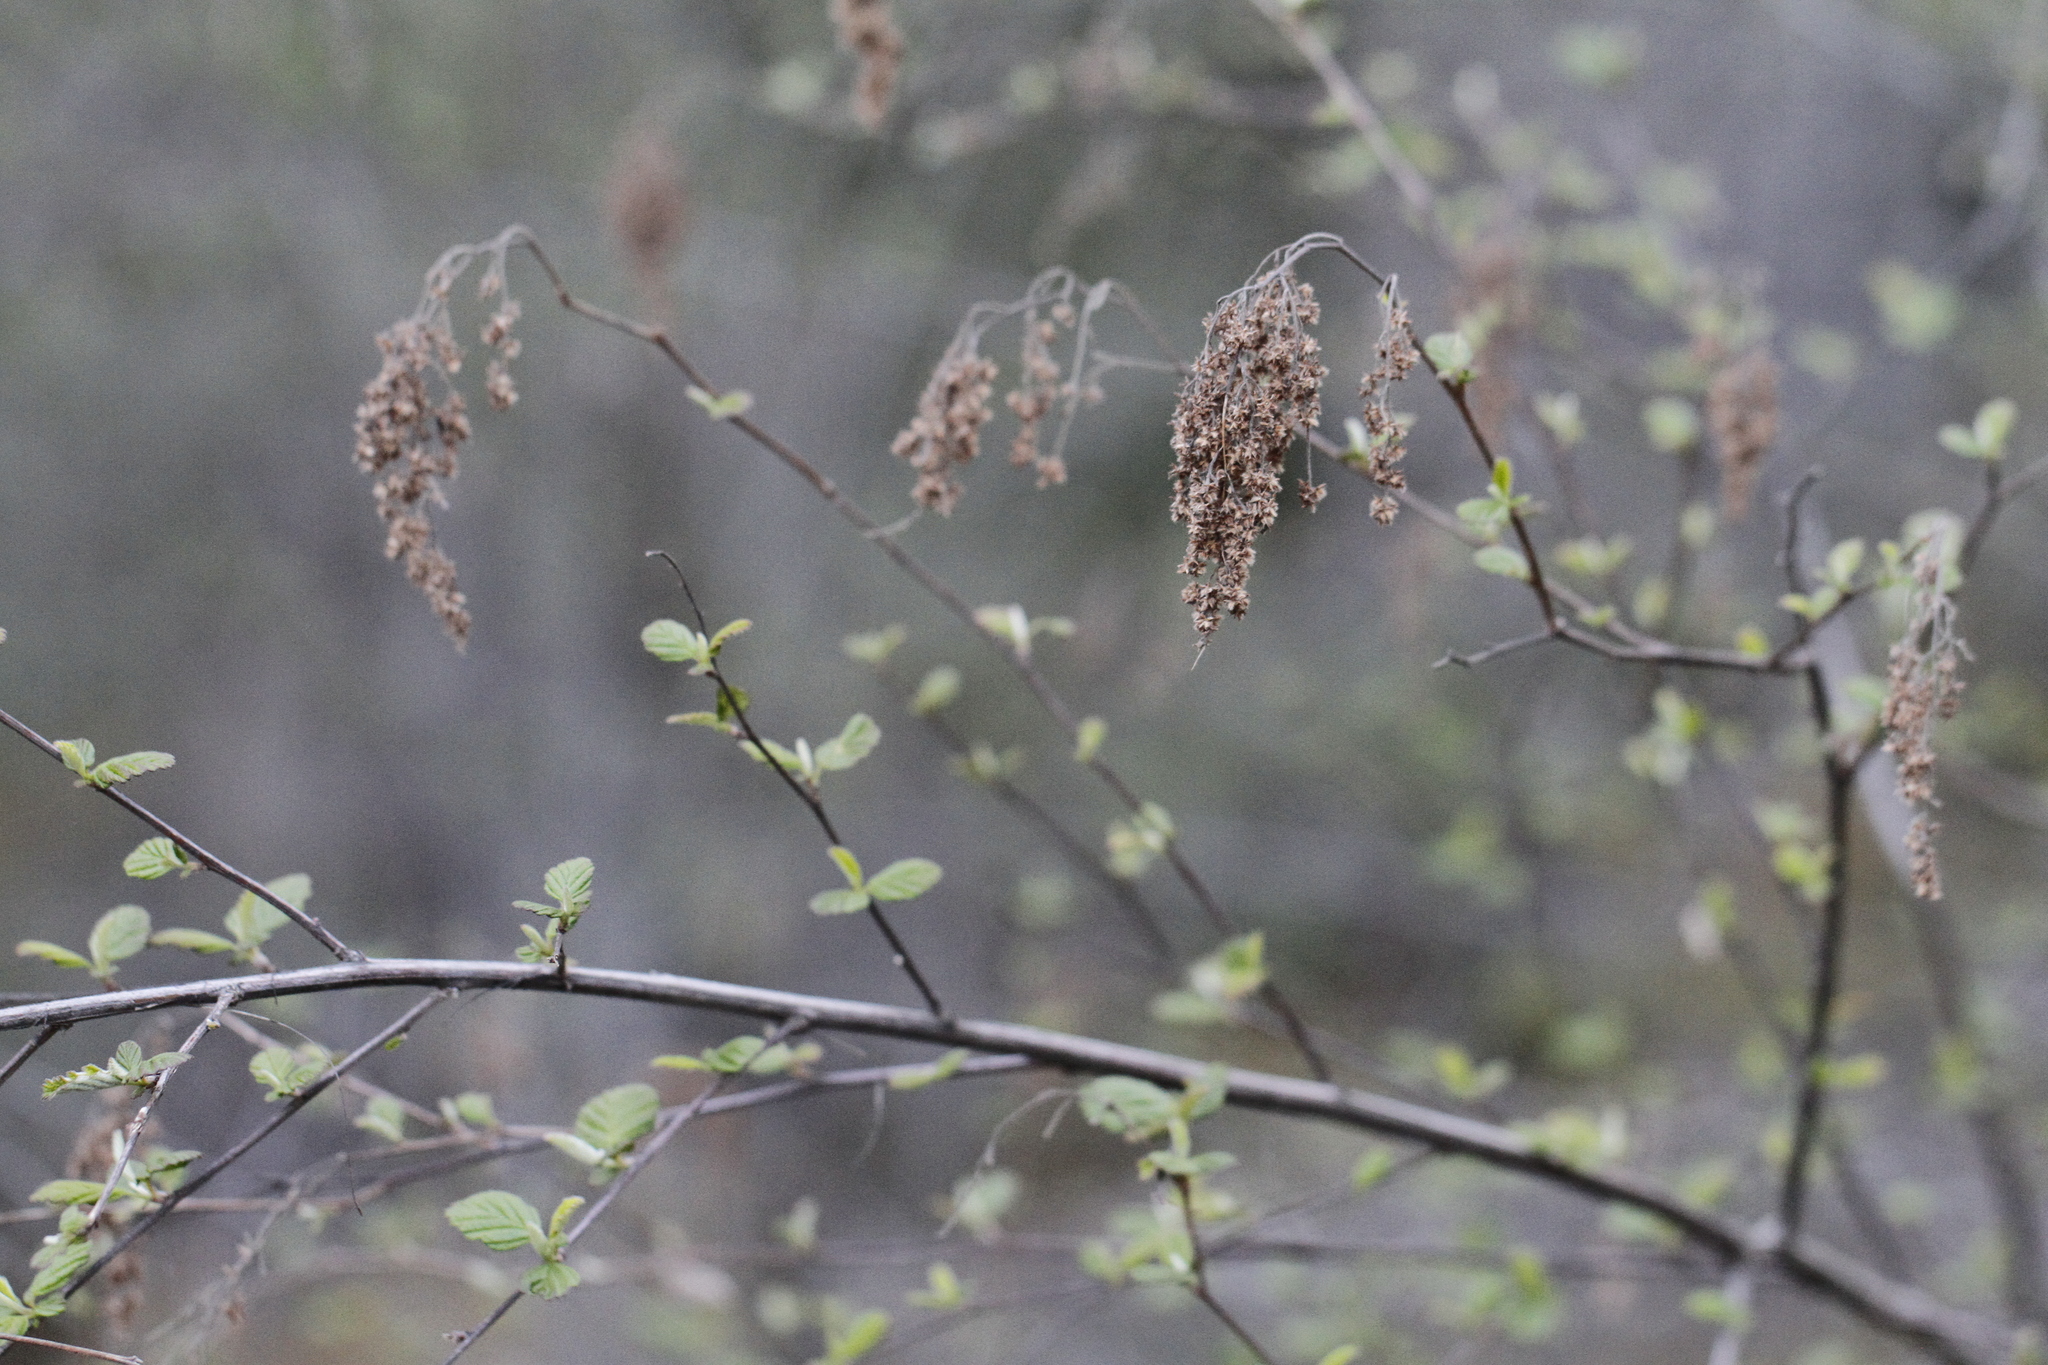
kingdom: Plantae
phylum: Tracheophyta
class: Magnoliopsida
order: Rosales
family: Rosaceae
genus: Holodiscus
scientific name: Holodiscus discolor
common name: Oceanspray
